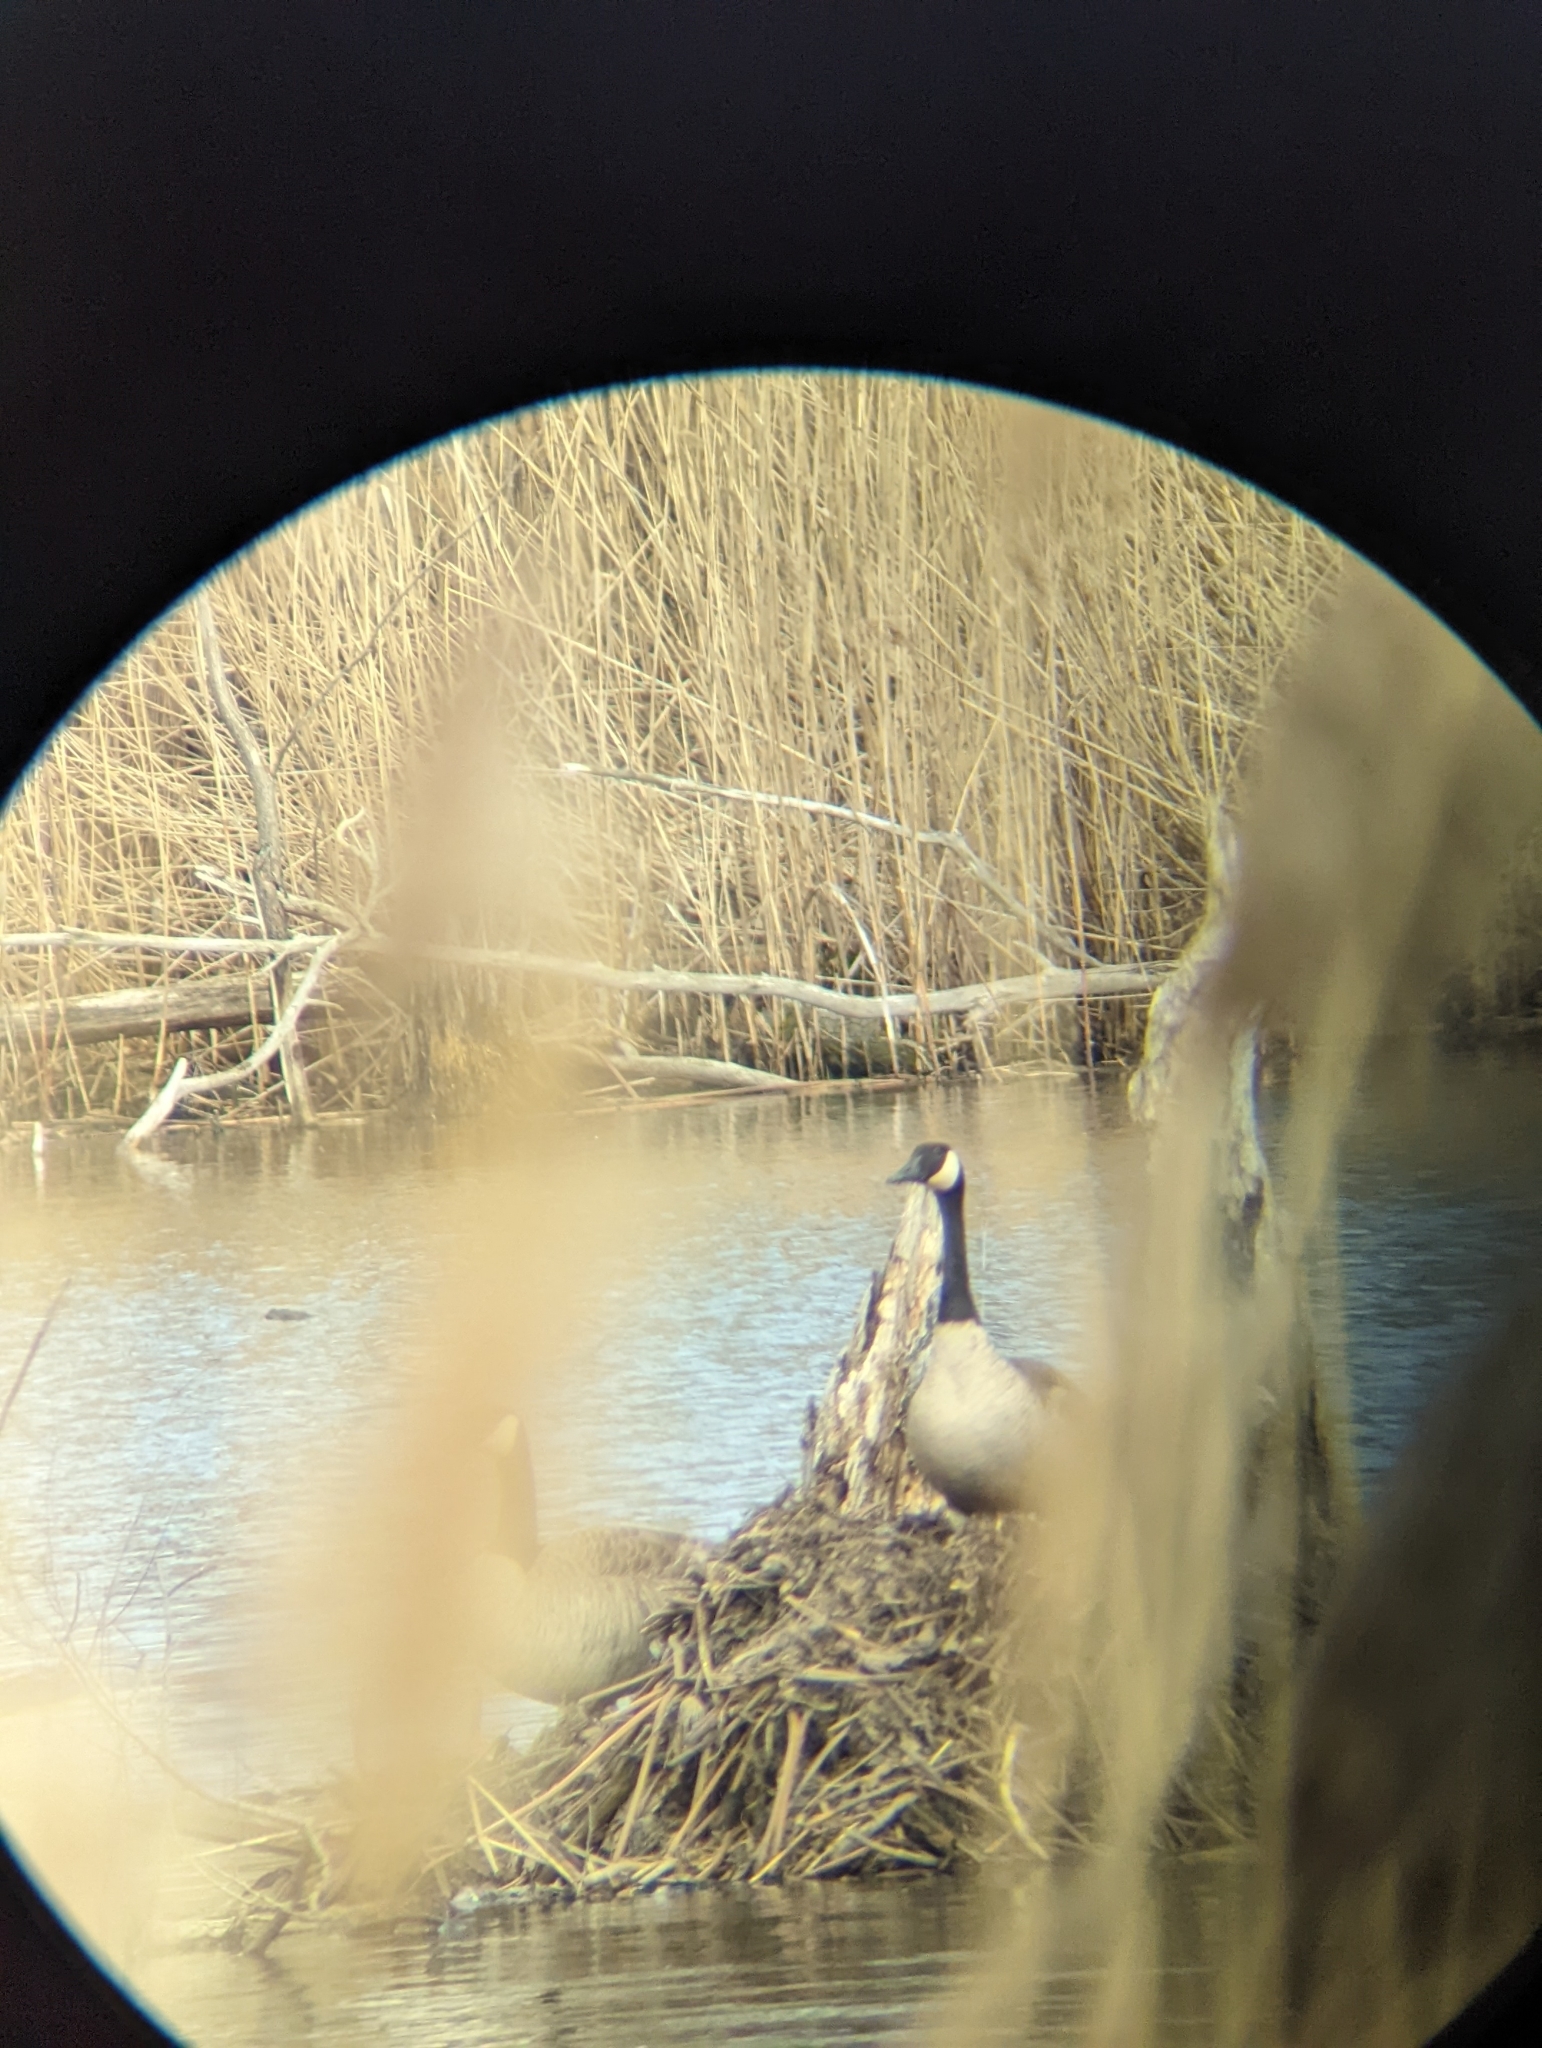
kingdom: Animalia
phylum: Chordata
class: Aves
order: Anseriformes
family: Anatidae
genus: Branta
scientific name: Branta canadensis
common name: Canada goose
